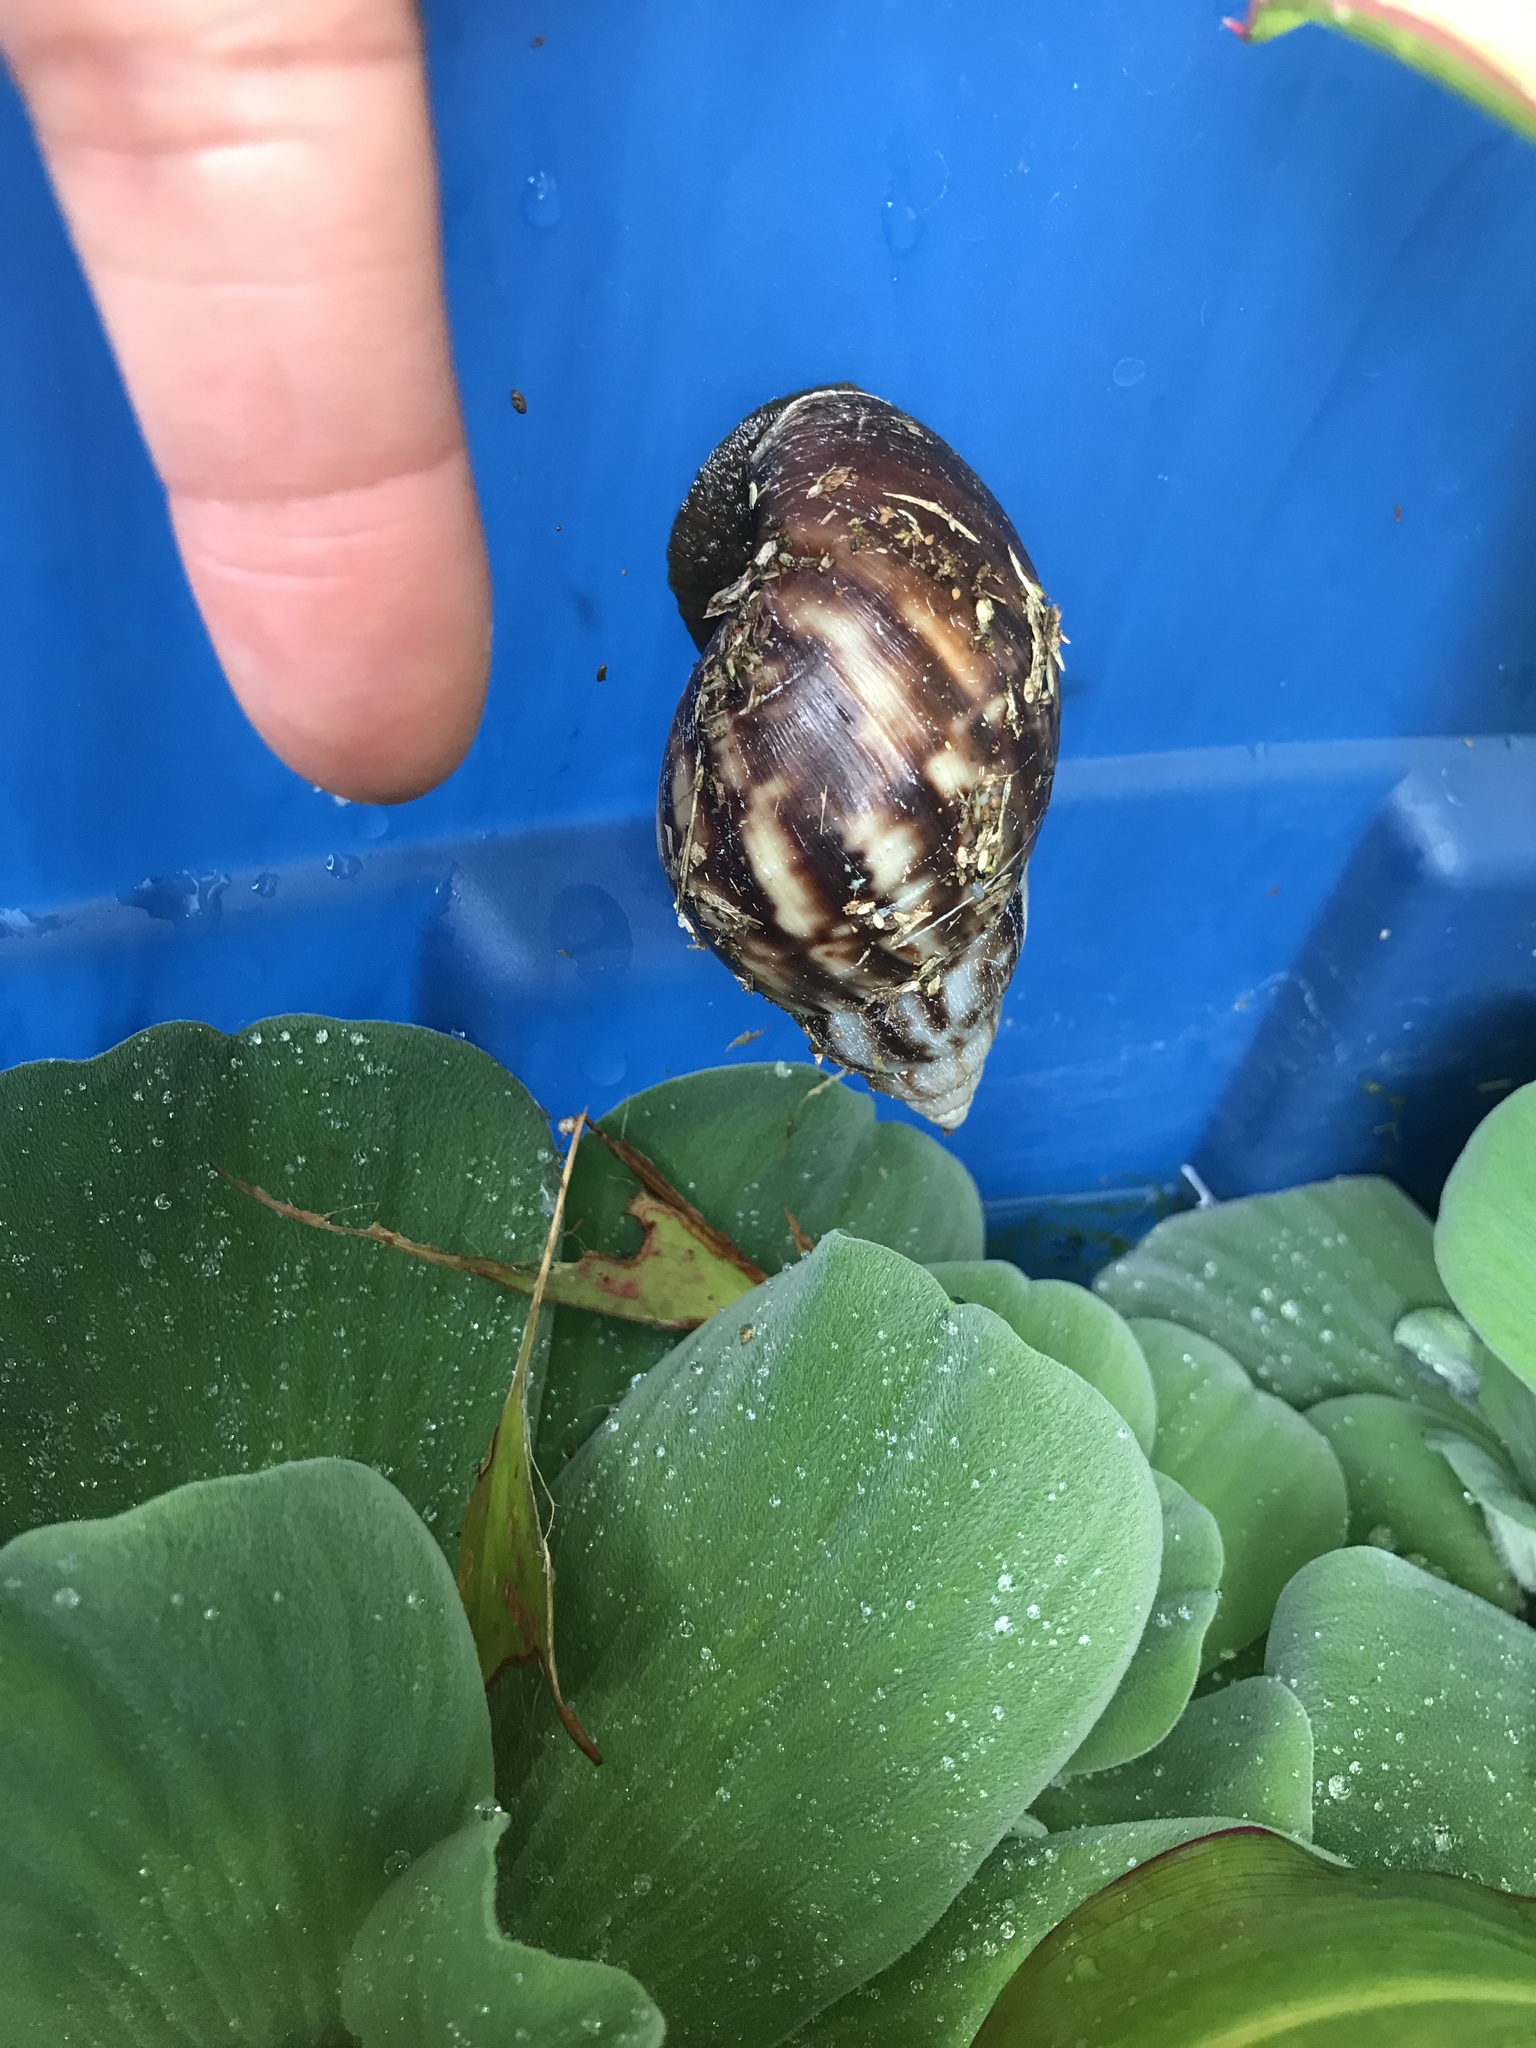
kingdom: Animalia
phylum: Mollusca
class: Gastropoda
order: Stylommatophora
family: Achatinidae
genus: Lissachatina
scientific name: Lissachatina fulica
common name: Giant african snail
